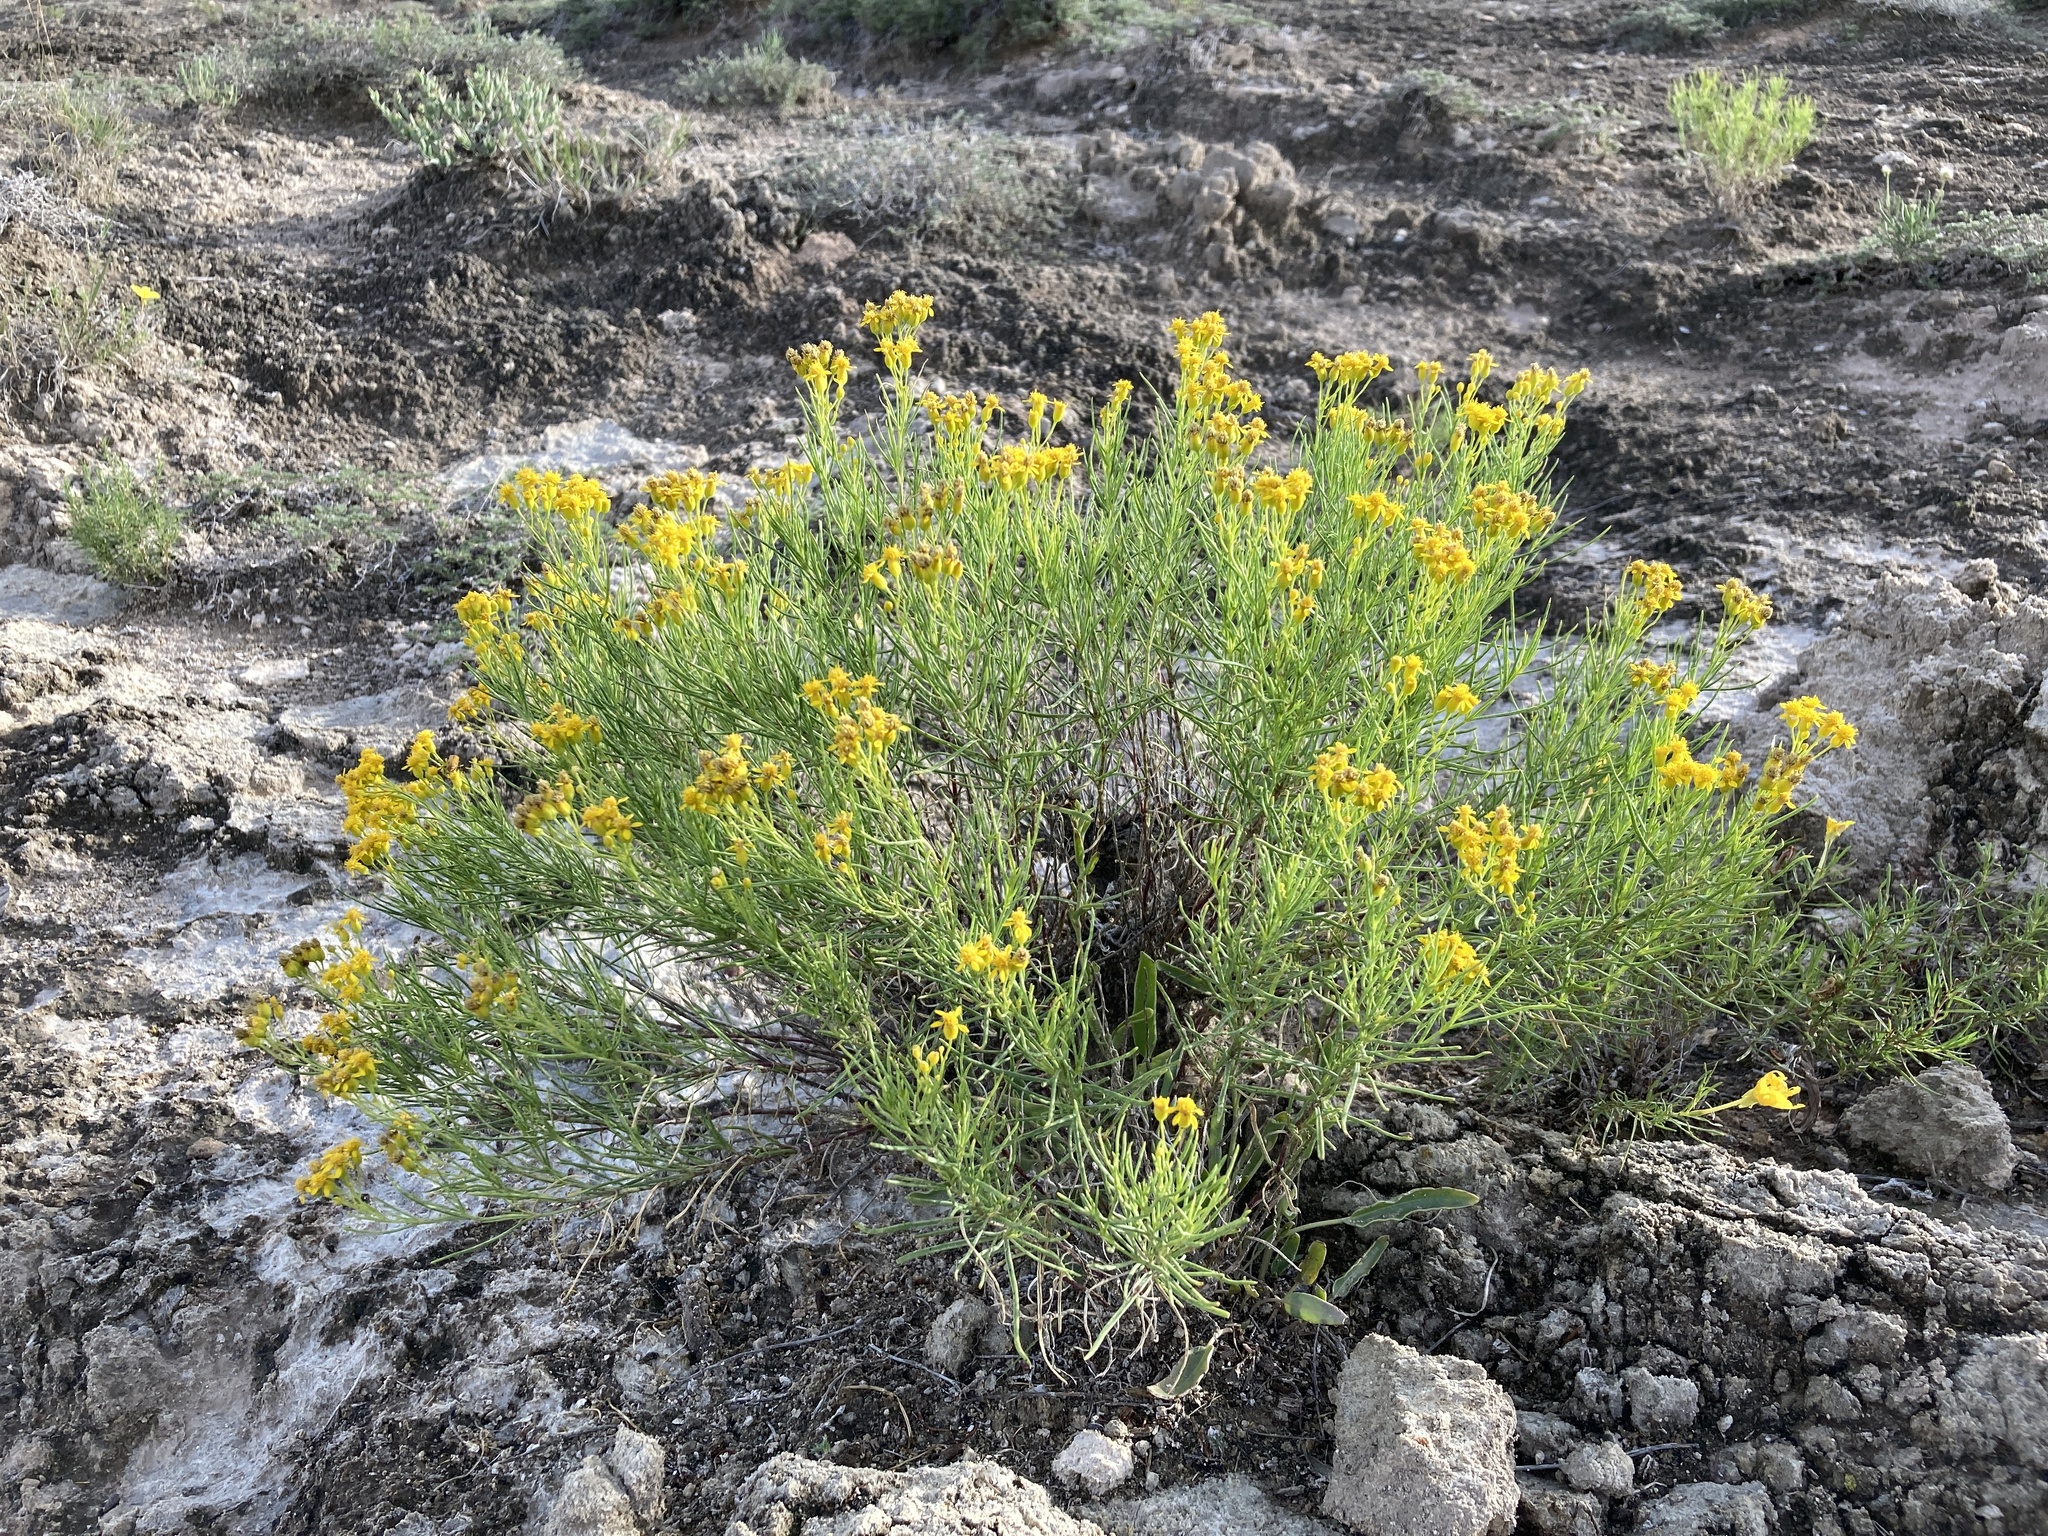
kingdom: Plantae
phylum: Tracheophyta
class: Magnoliopsida
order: Asterales
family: Asteraceae
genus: Haploesthes
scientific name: Haploesthes greggii
